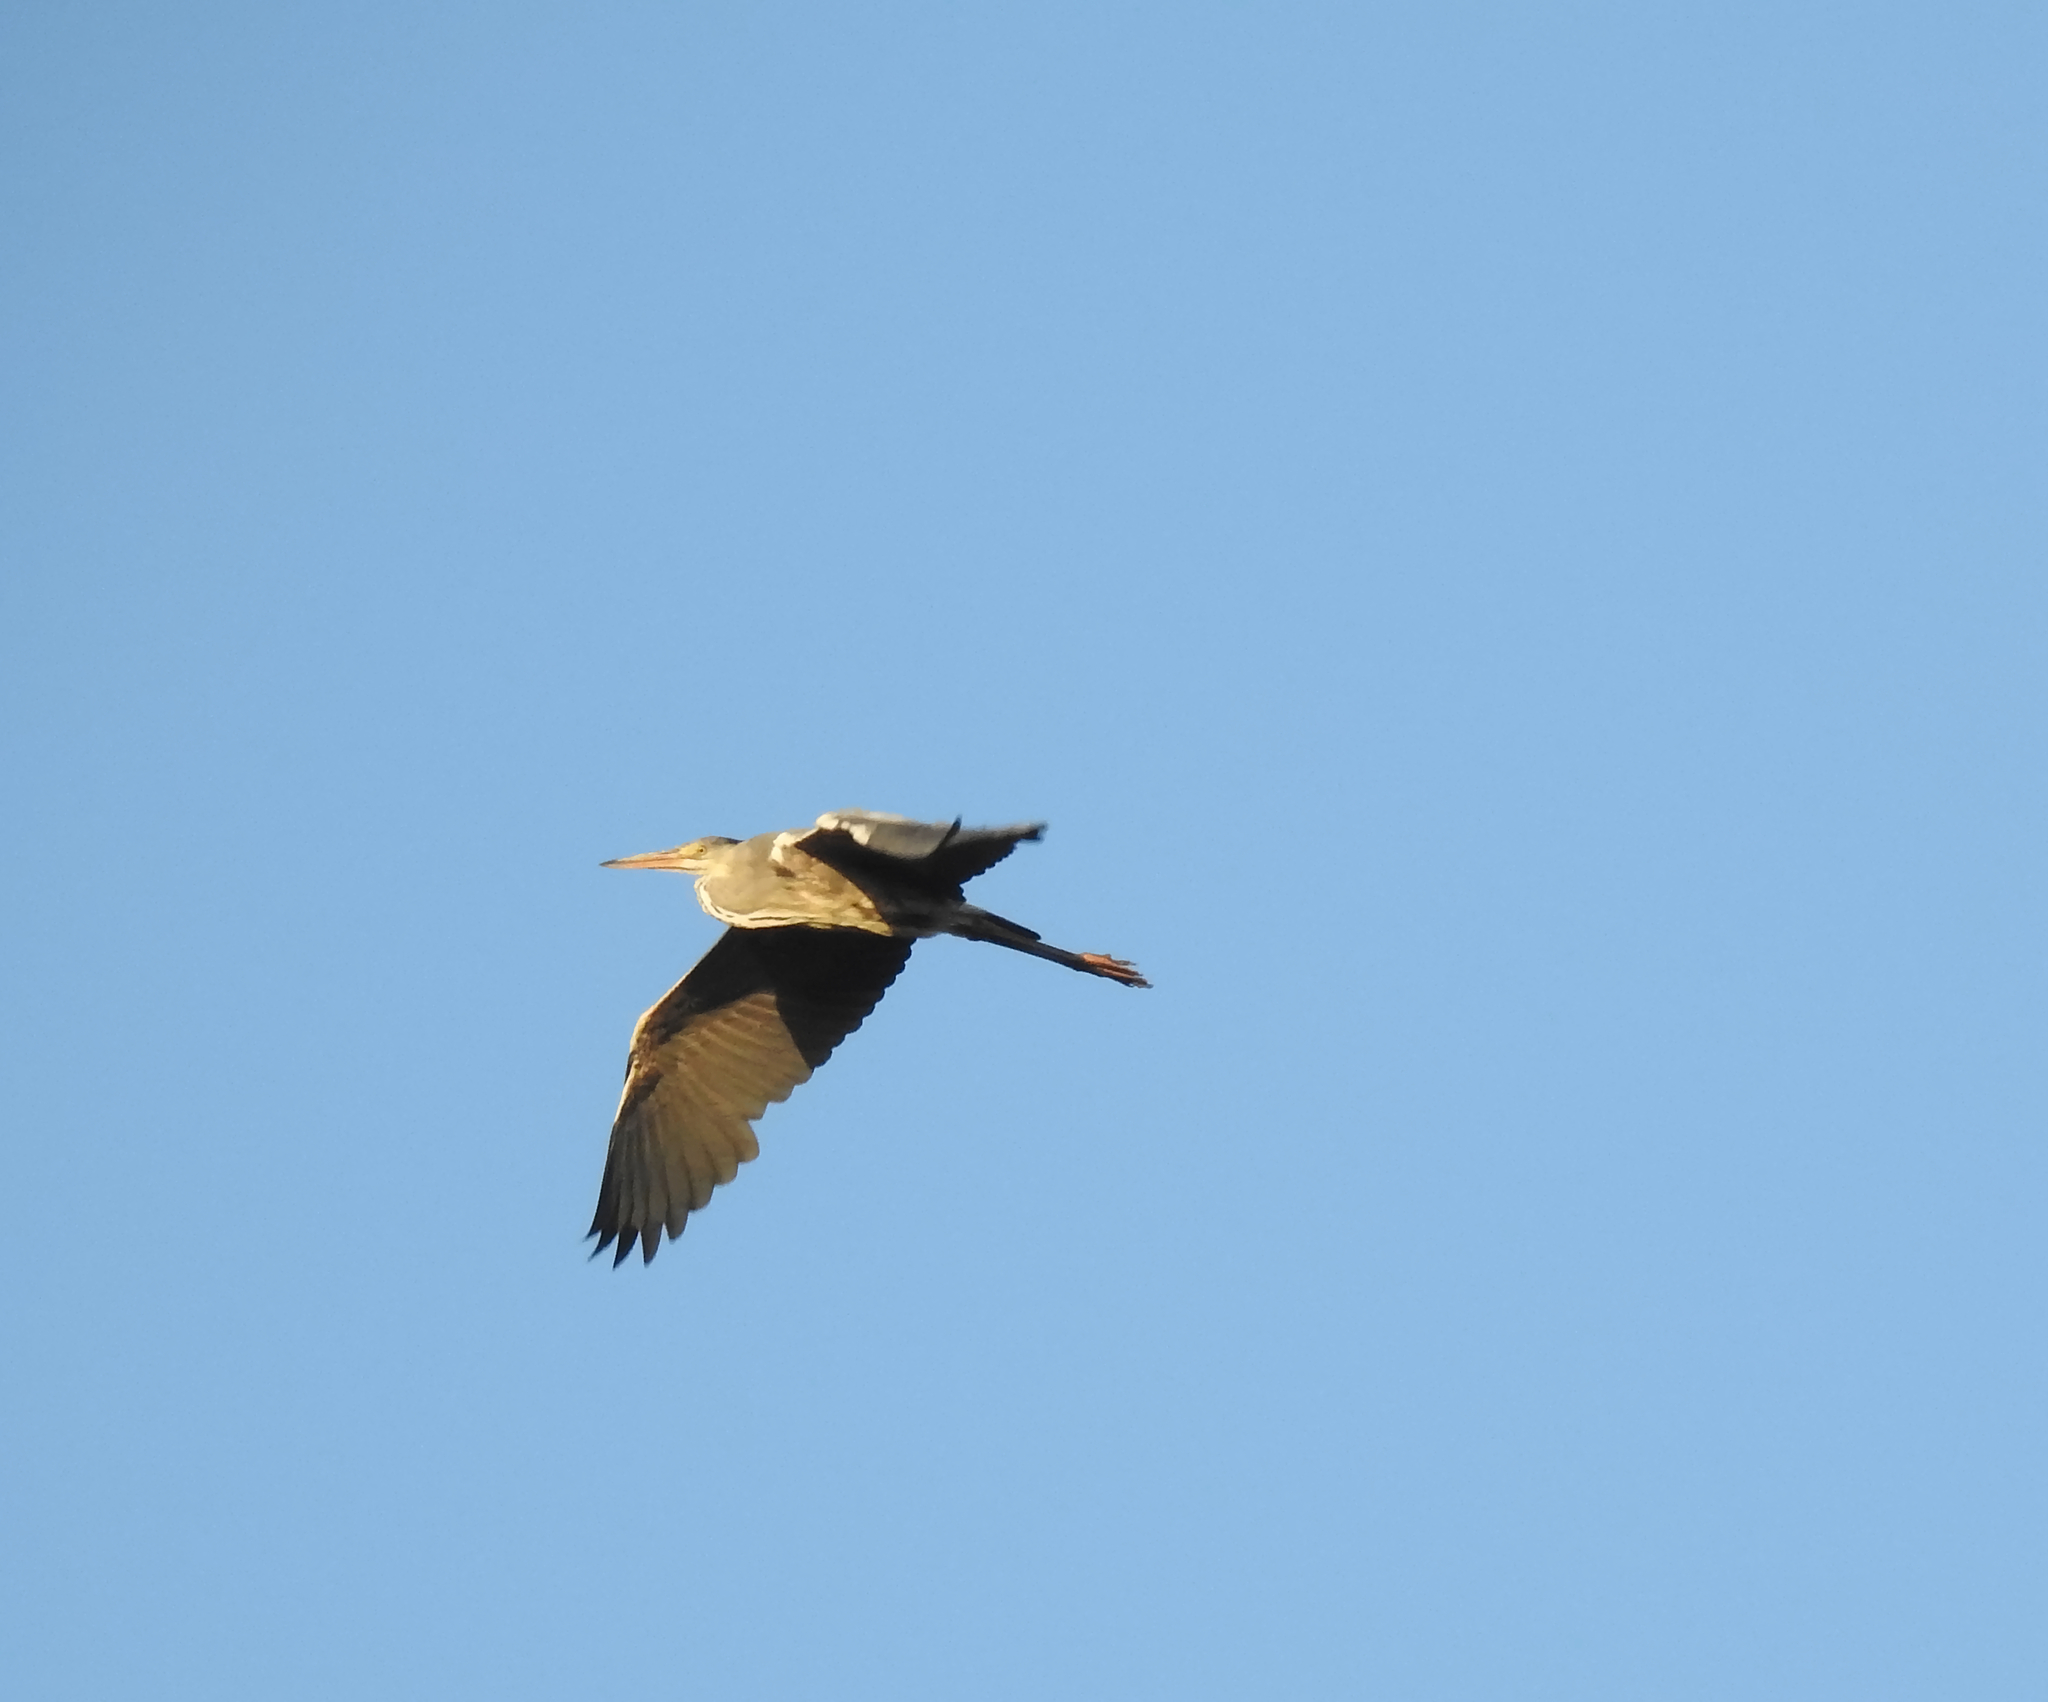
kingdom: Animalia
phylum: Chordata
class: Aves
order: Pelecaniformes
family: Ardeidae
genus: Ardea
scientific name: Ardea cinerea
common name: Grey heron
